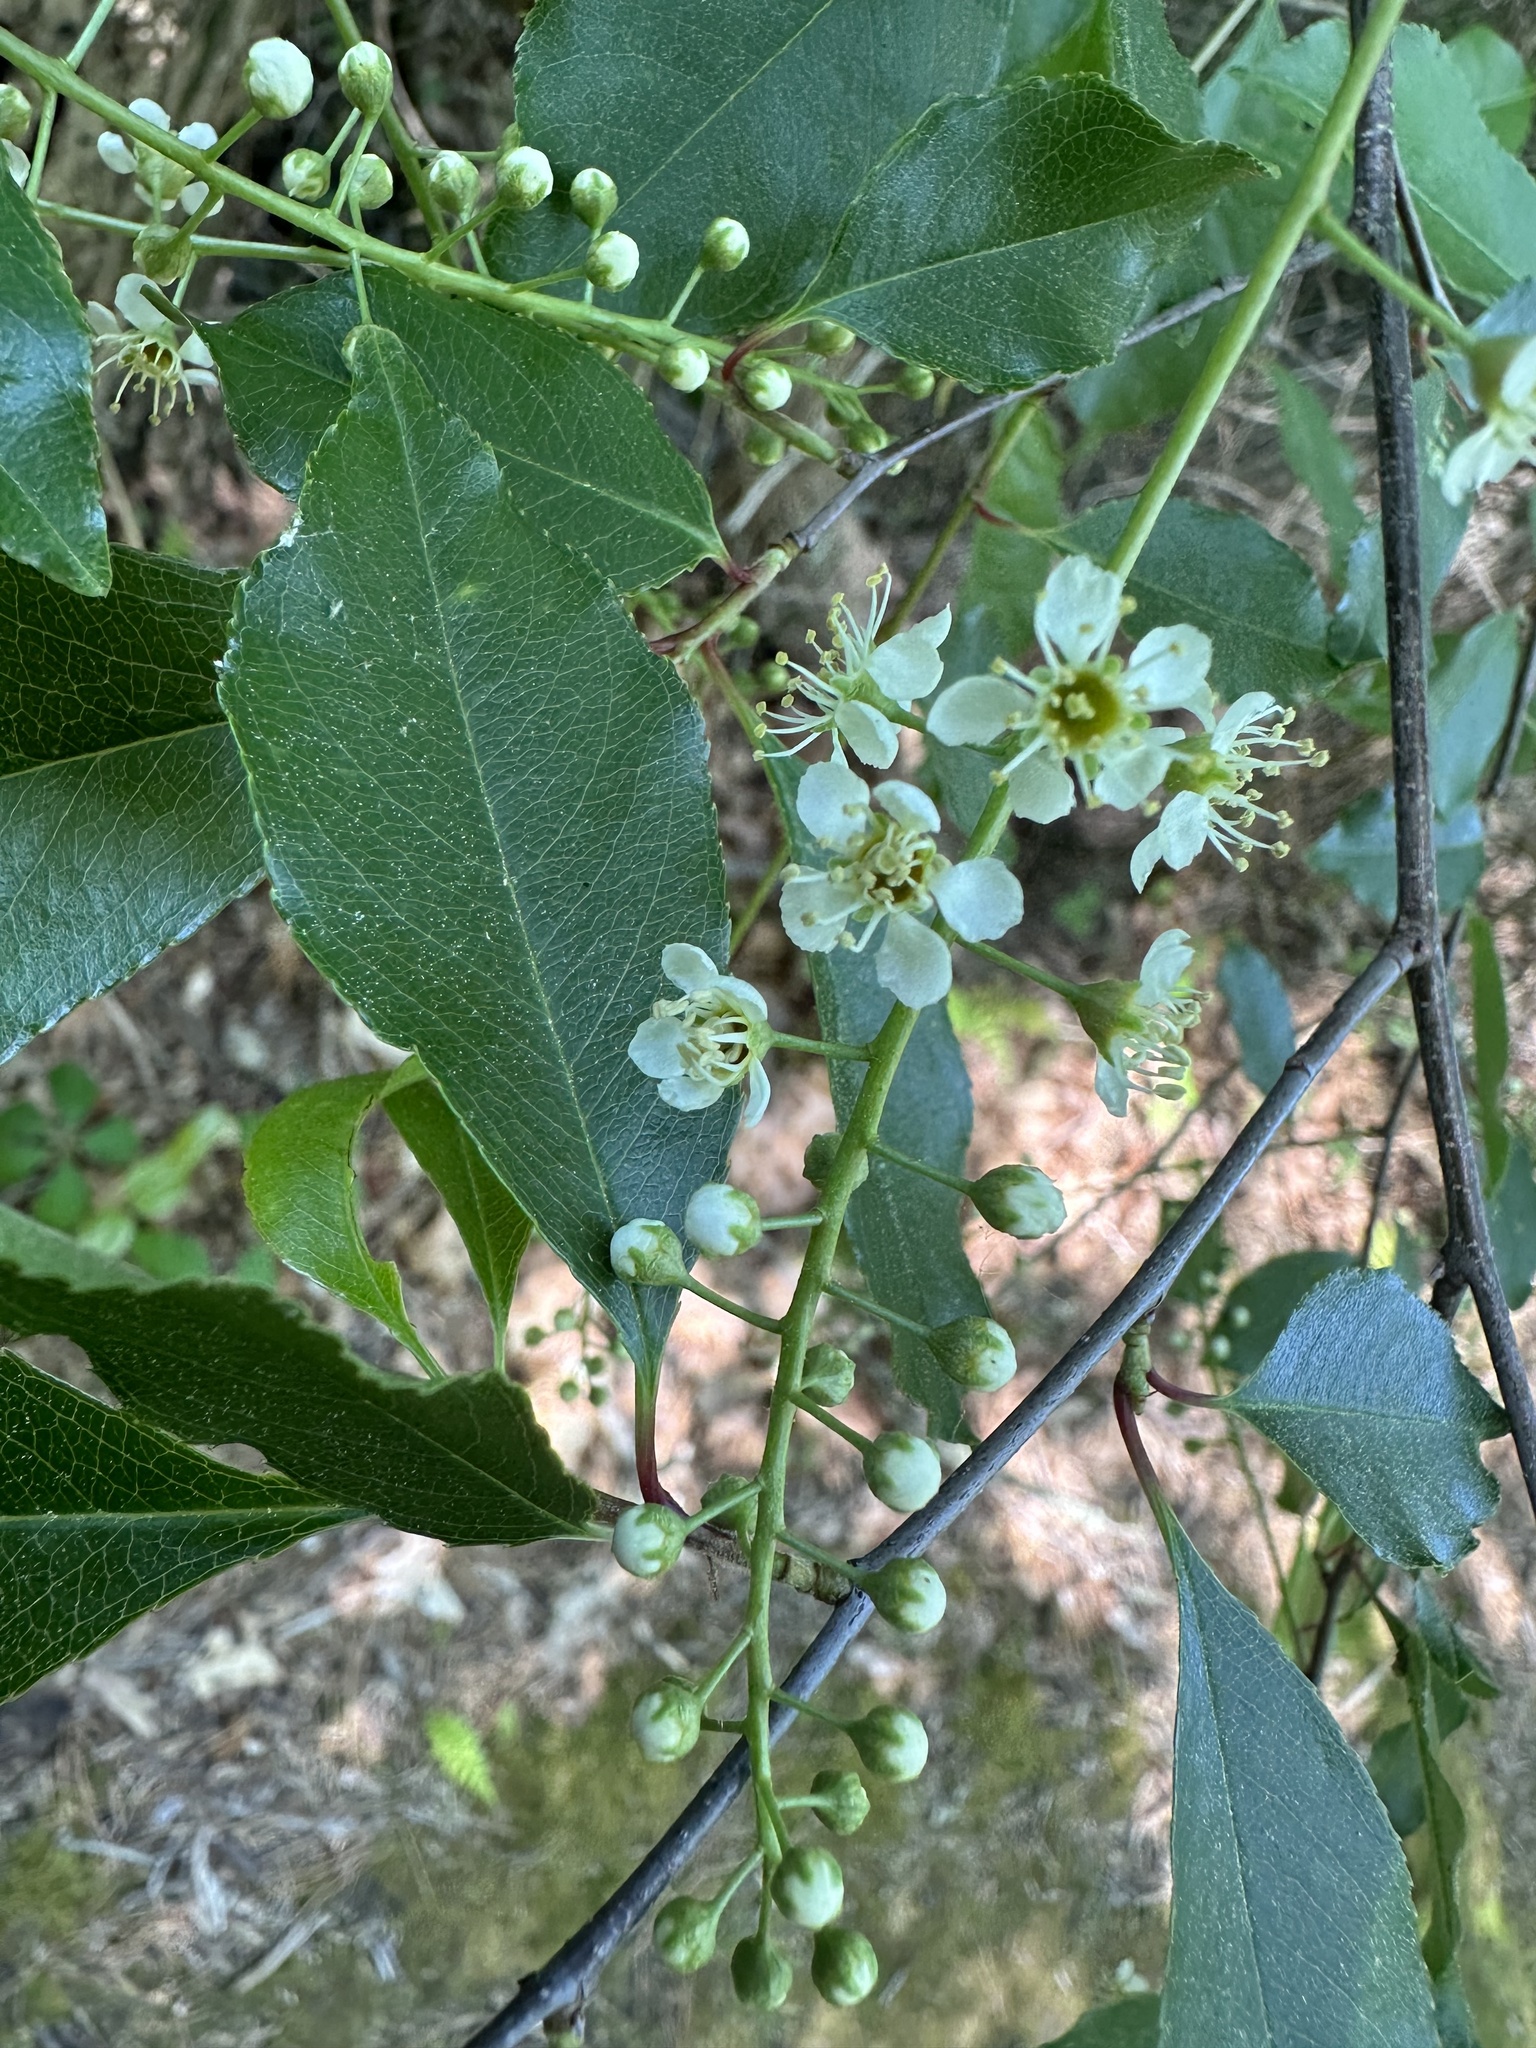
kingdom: Plantae
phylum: Tracheophyta
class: Magnoliopsida
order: Rosales
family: Rosaceae
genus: Prunus
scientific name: Prunus serotina
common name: Black cherry
